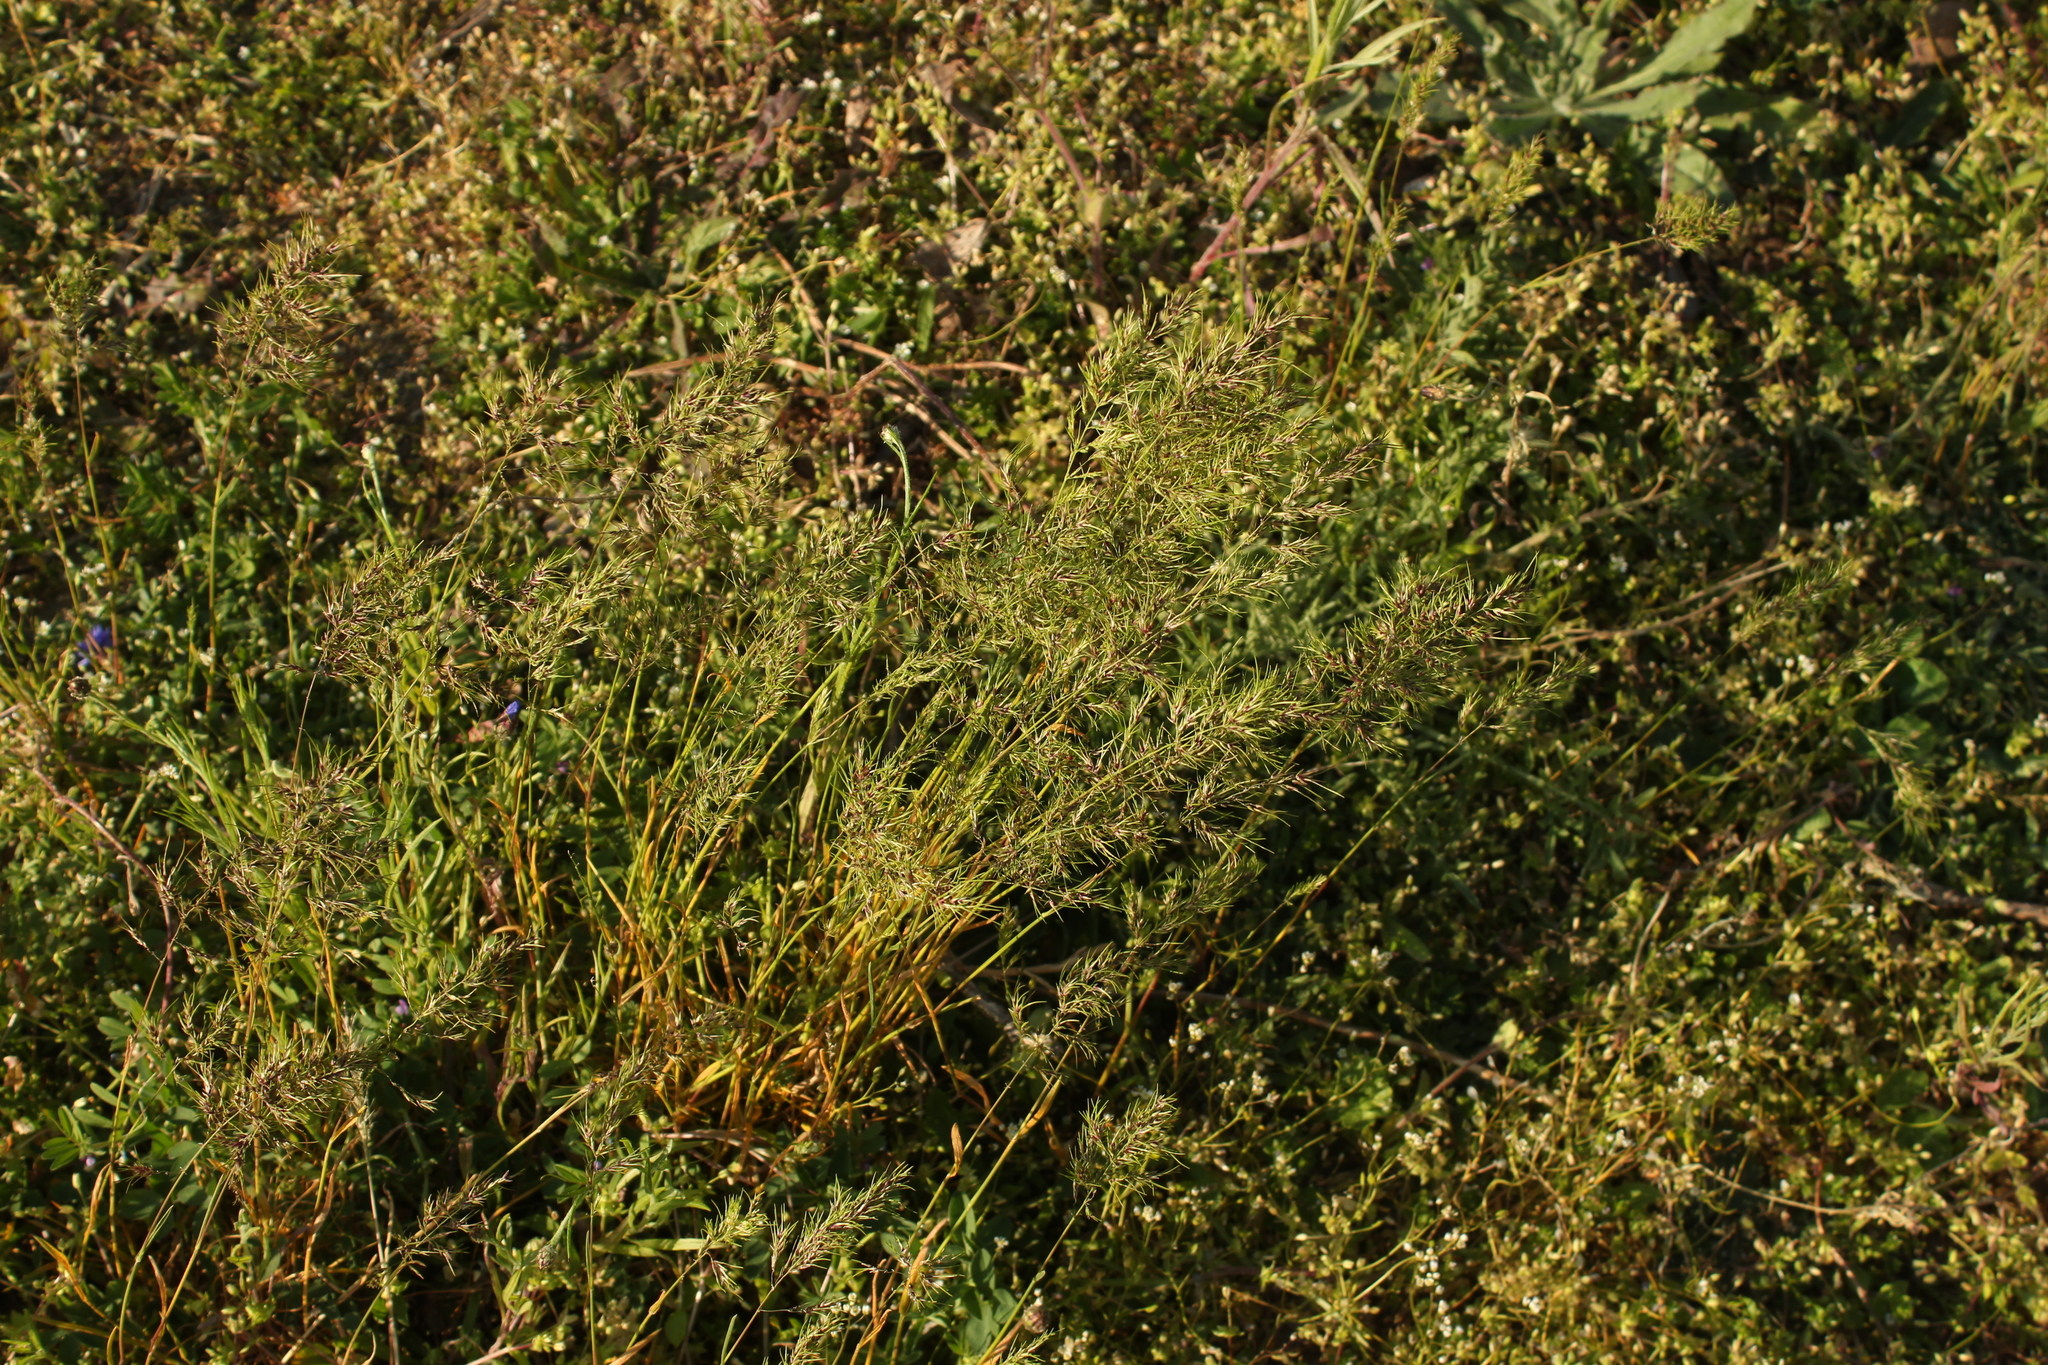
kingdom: Plantae
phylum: Tracheophyta
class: Liliopsida
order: Poales
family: Poaceae
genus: Poa
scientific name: Poa bulbosa
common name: Bulbous bluegrass
